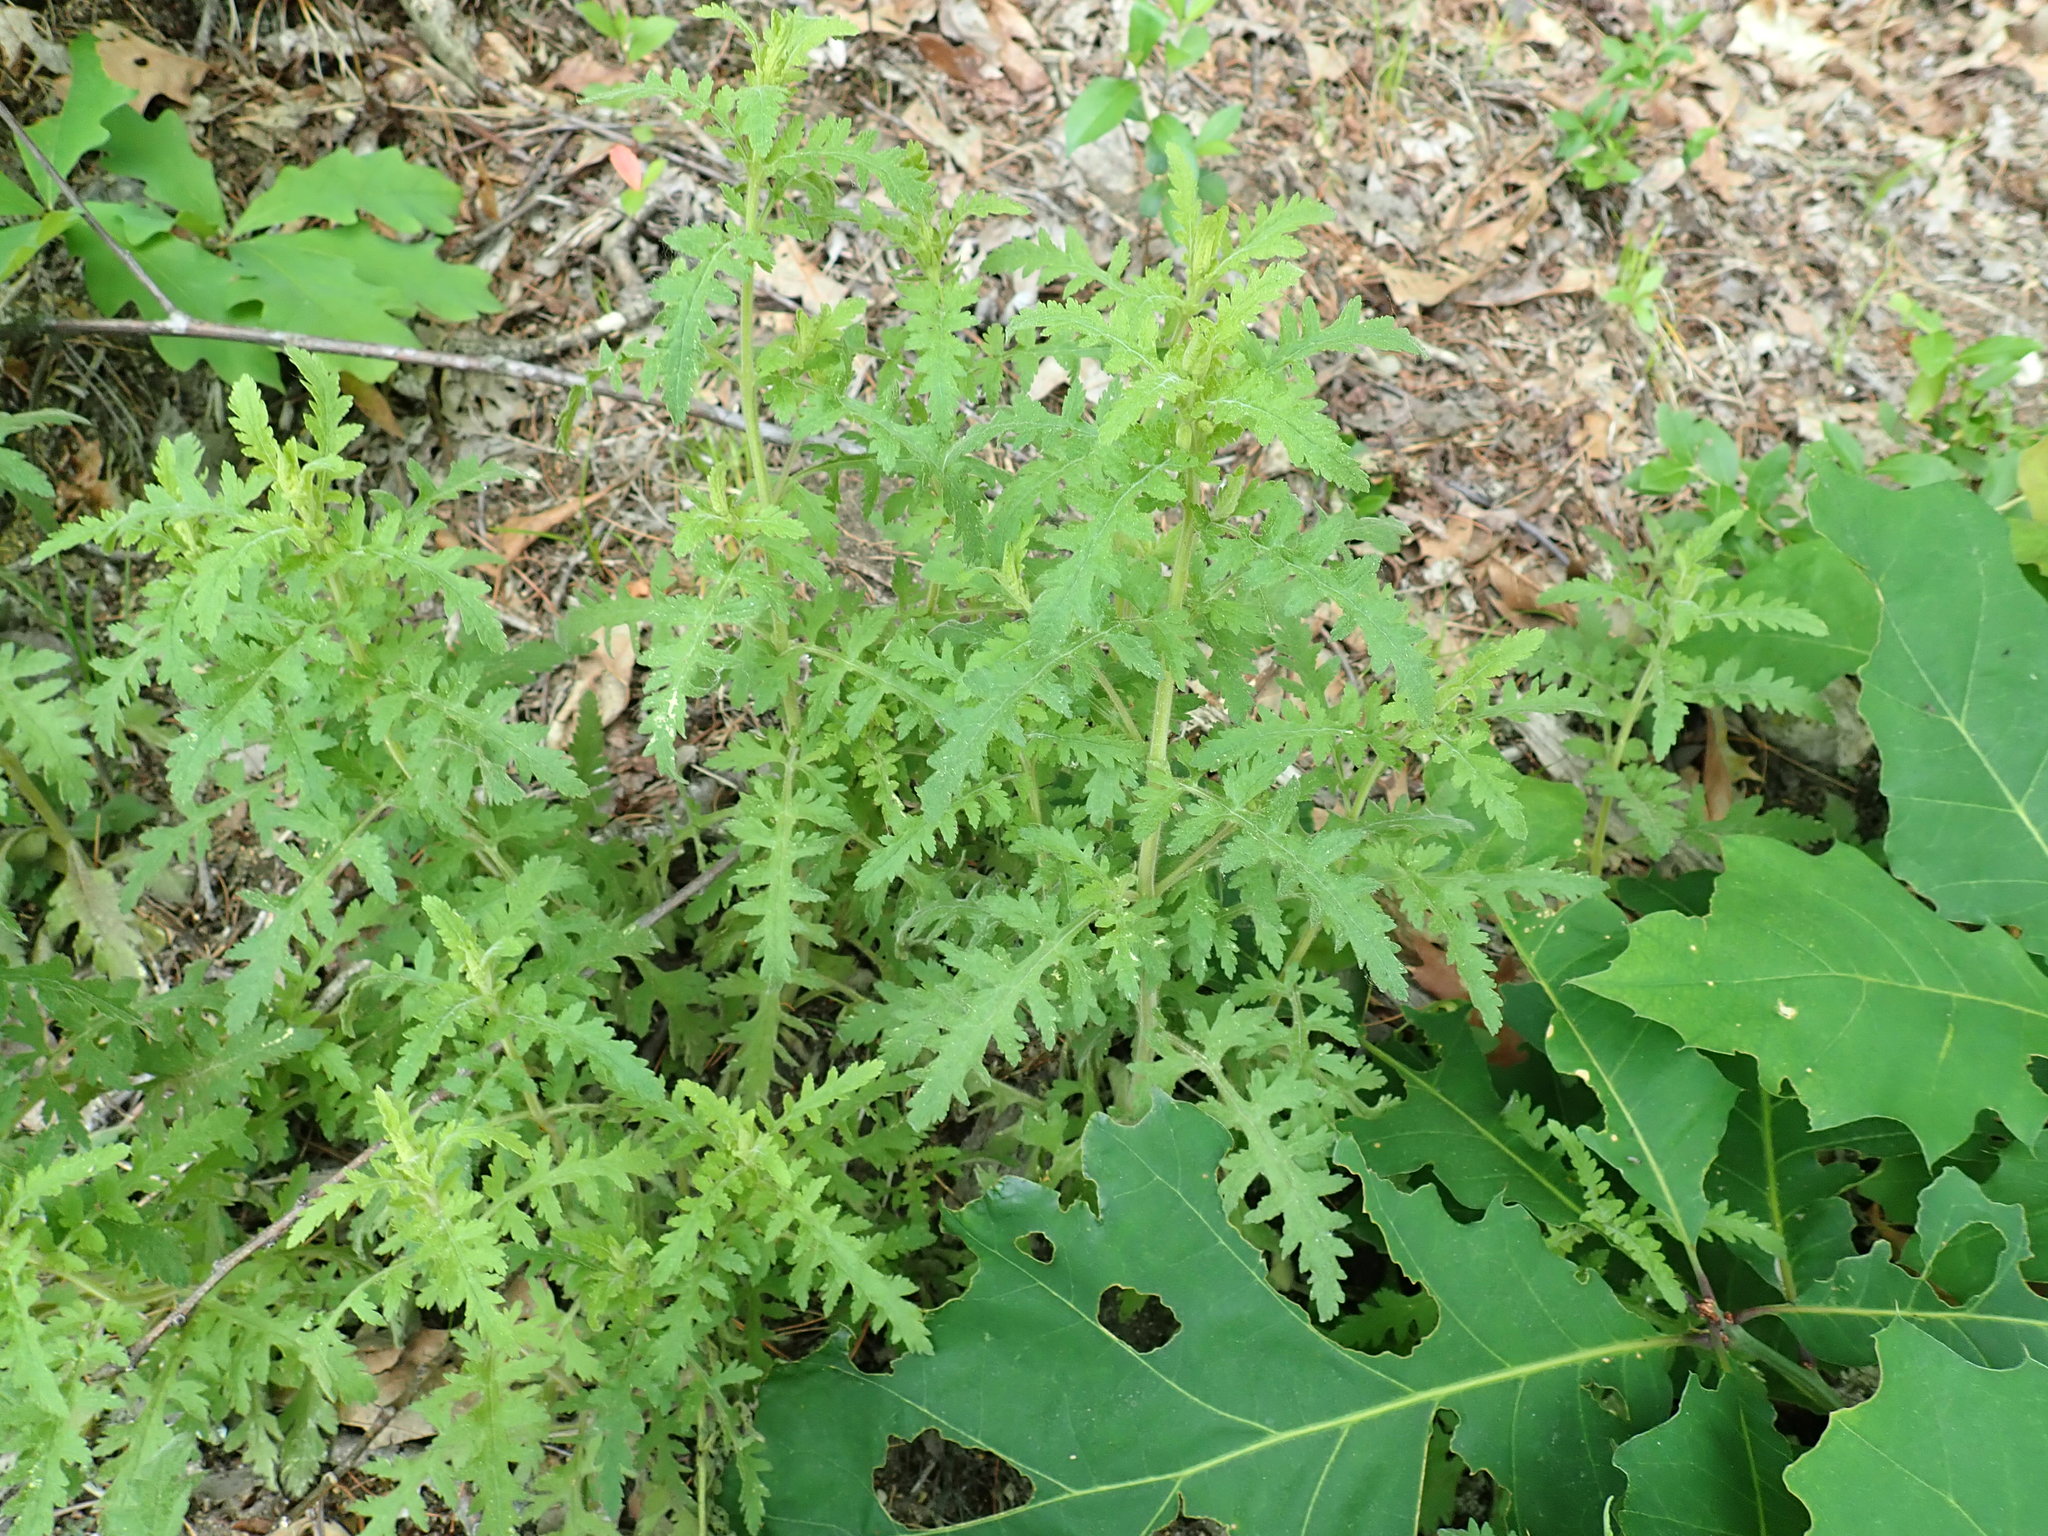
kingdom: Plantae
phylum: Tracheophyta
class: Magnoliopsida
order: Lamiales
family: Orobanchaceae
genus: Aureolaria
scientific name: Aureolaria pedicularia
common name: Annual false foxglove
